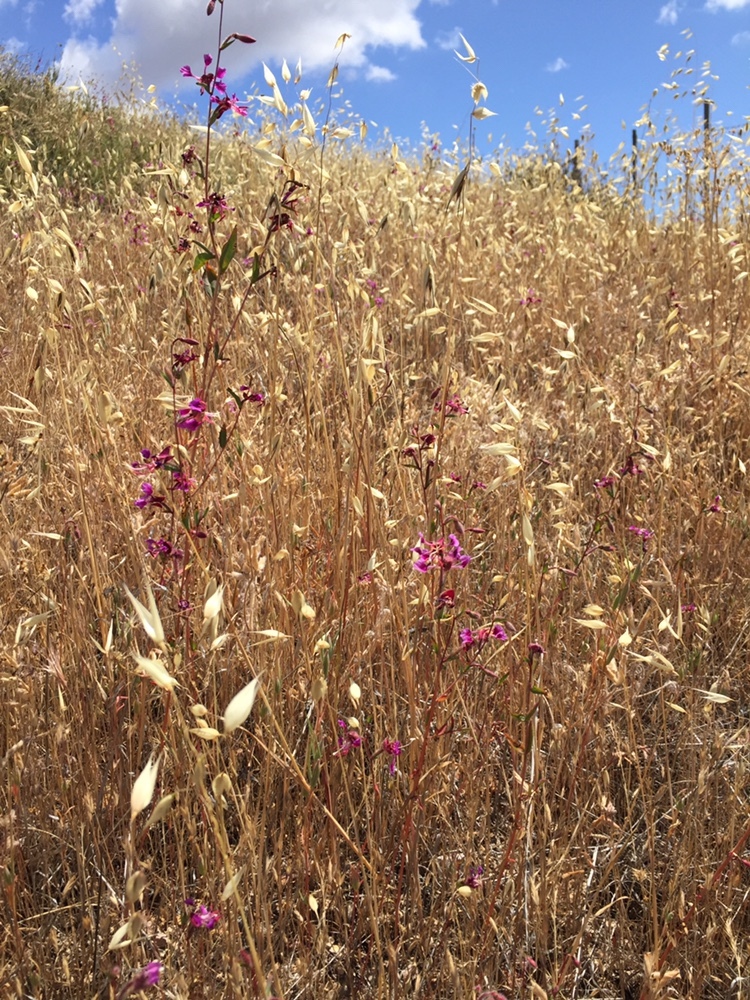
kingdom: Plantae
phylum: Tracheophyta
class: Magnoliopsida
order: Myrtales
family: Onagraceae
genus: Clarkia
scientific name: Clarkia unguiculata
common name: Clarkia
